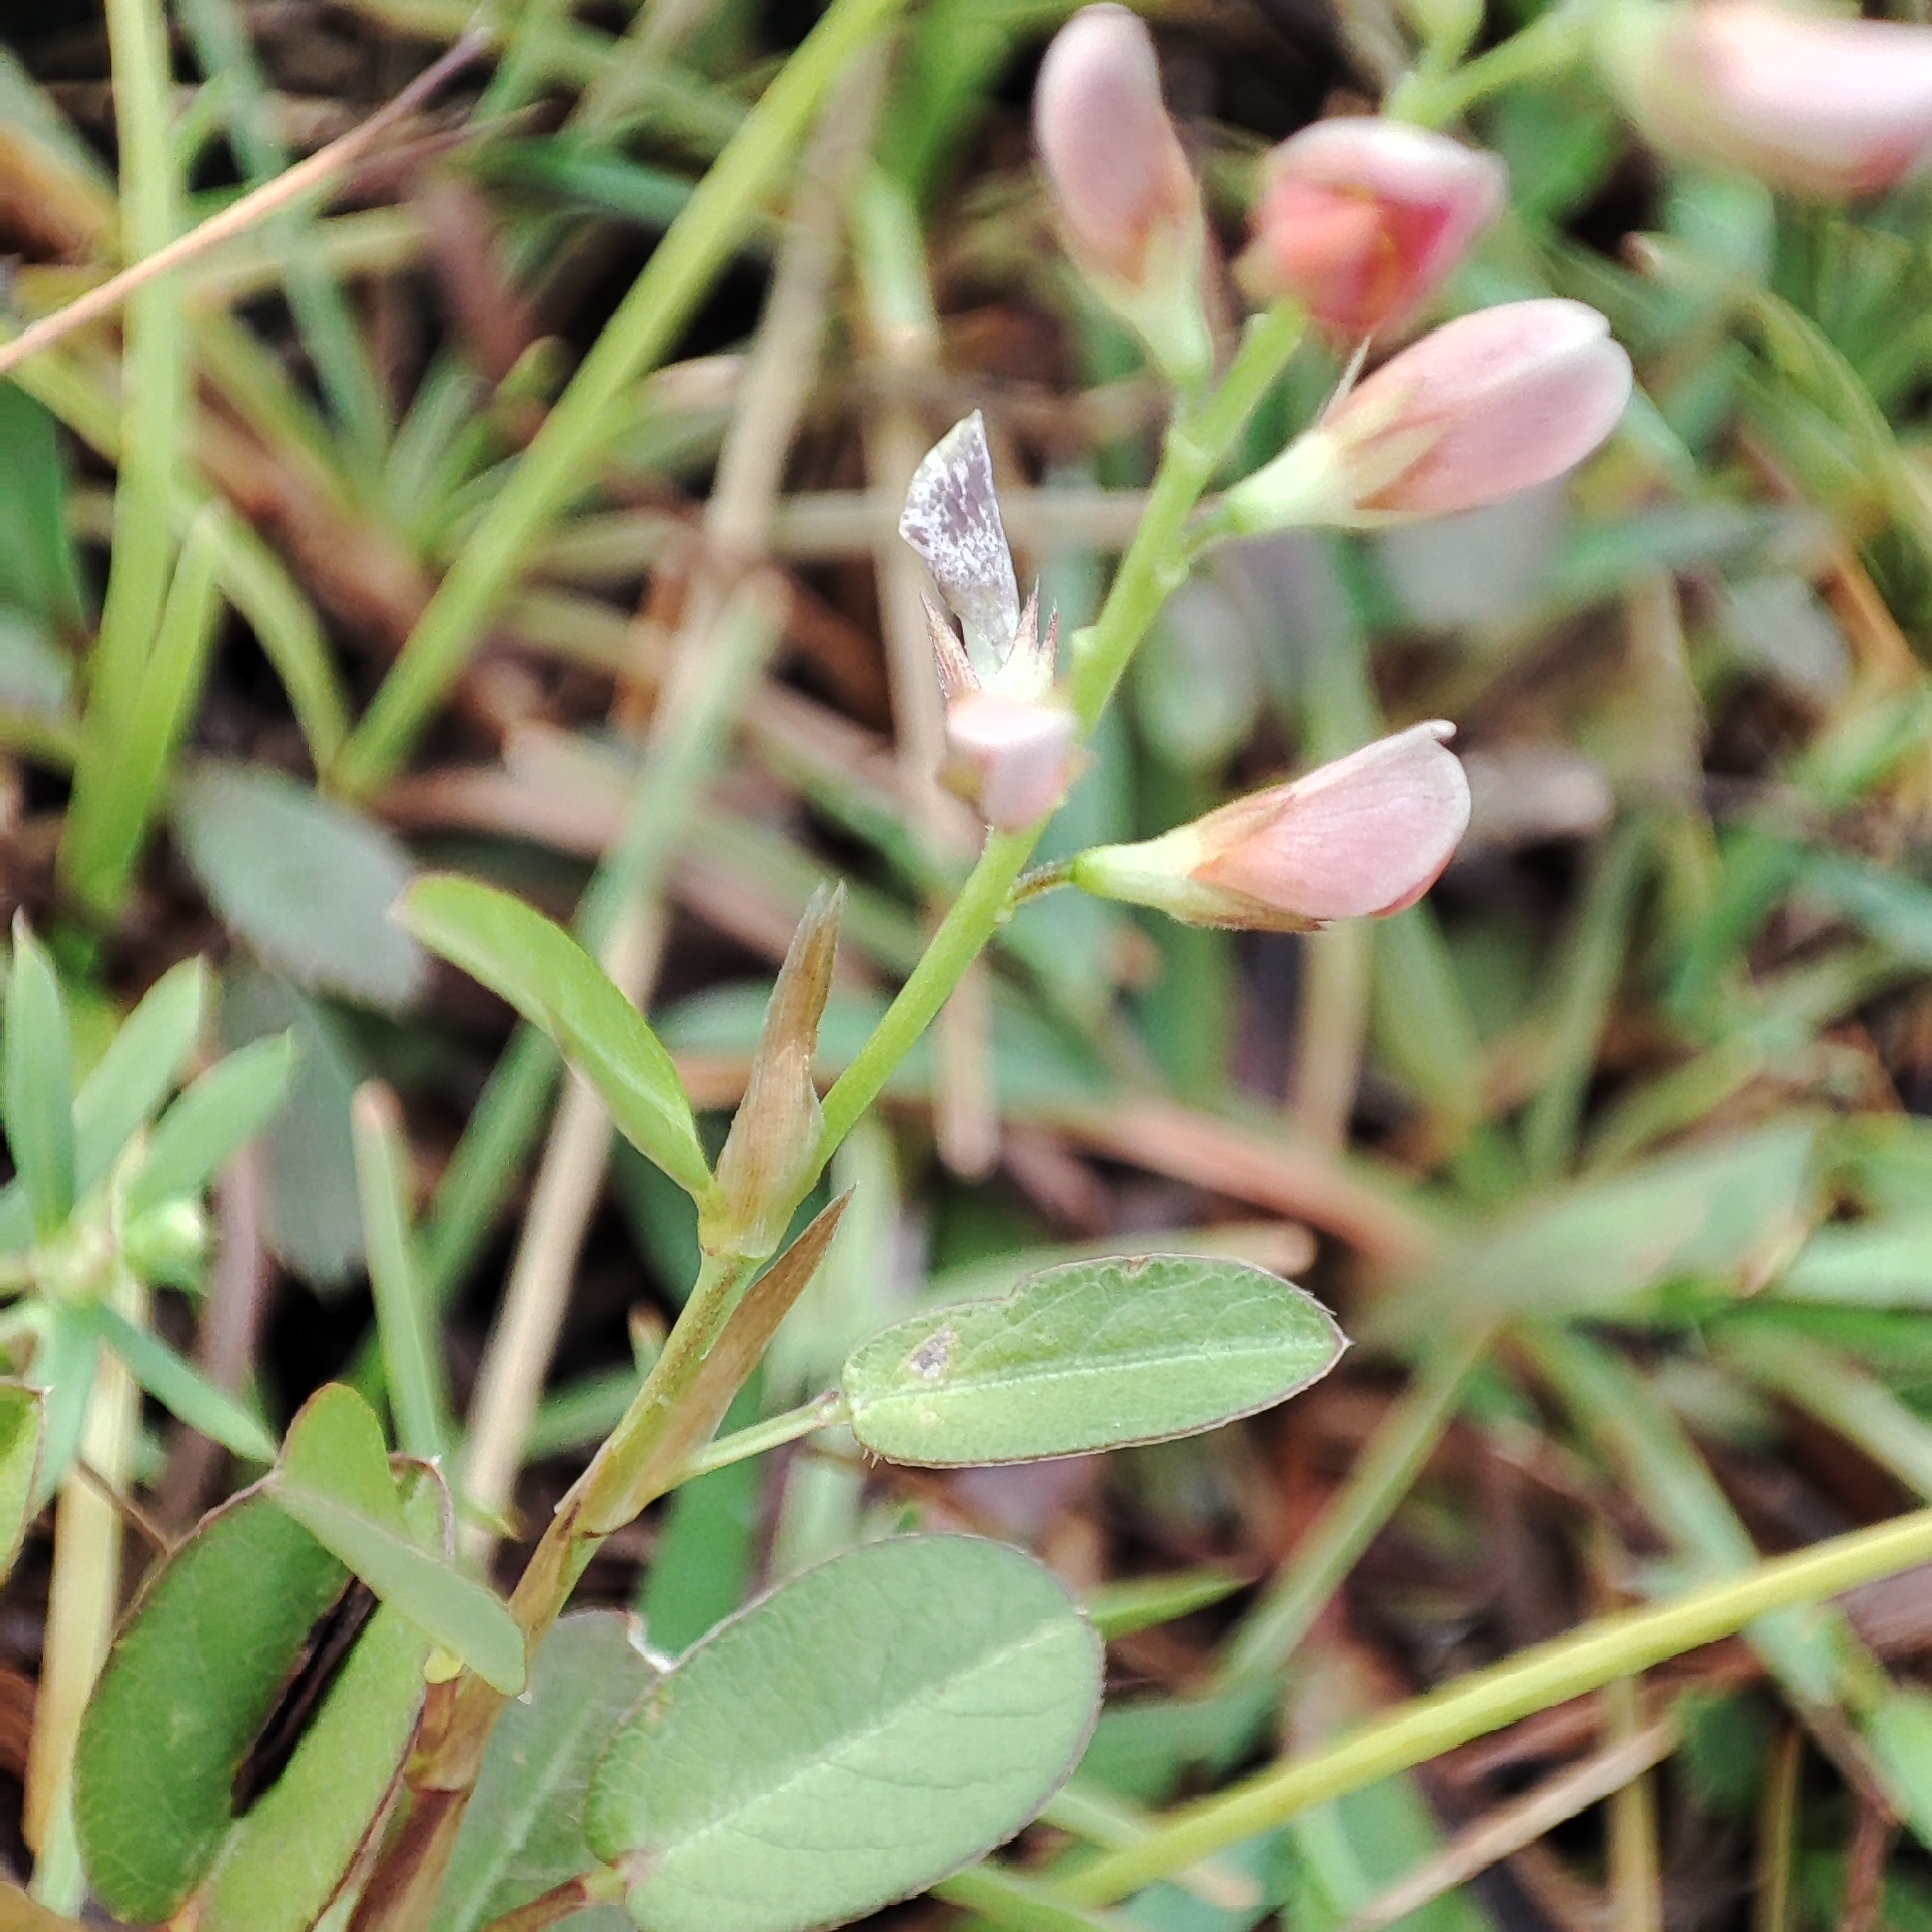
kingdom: Plantae
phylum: Tracheophyta
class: Magnoliopsida
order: Fabales
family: Fabaceae
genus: Alysicarpus
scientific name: Alysicarpus vaginalis
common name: White moneywort
